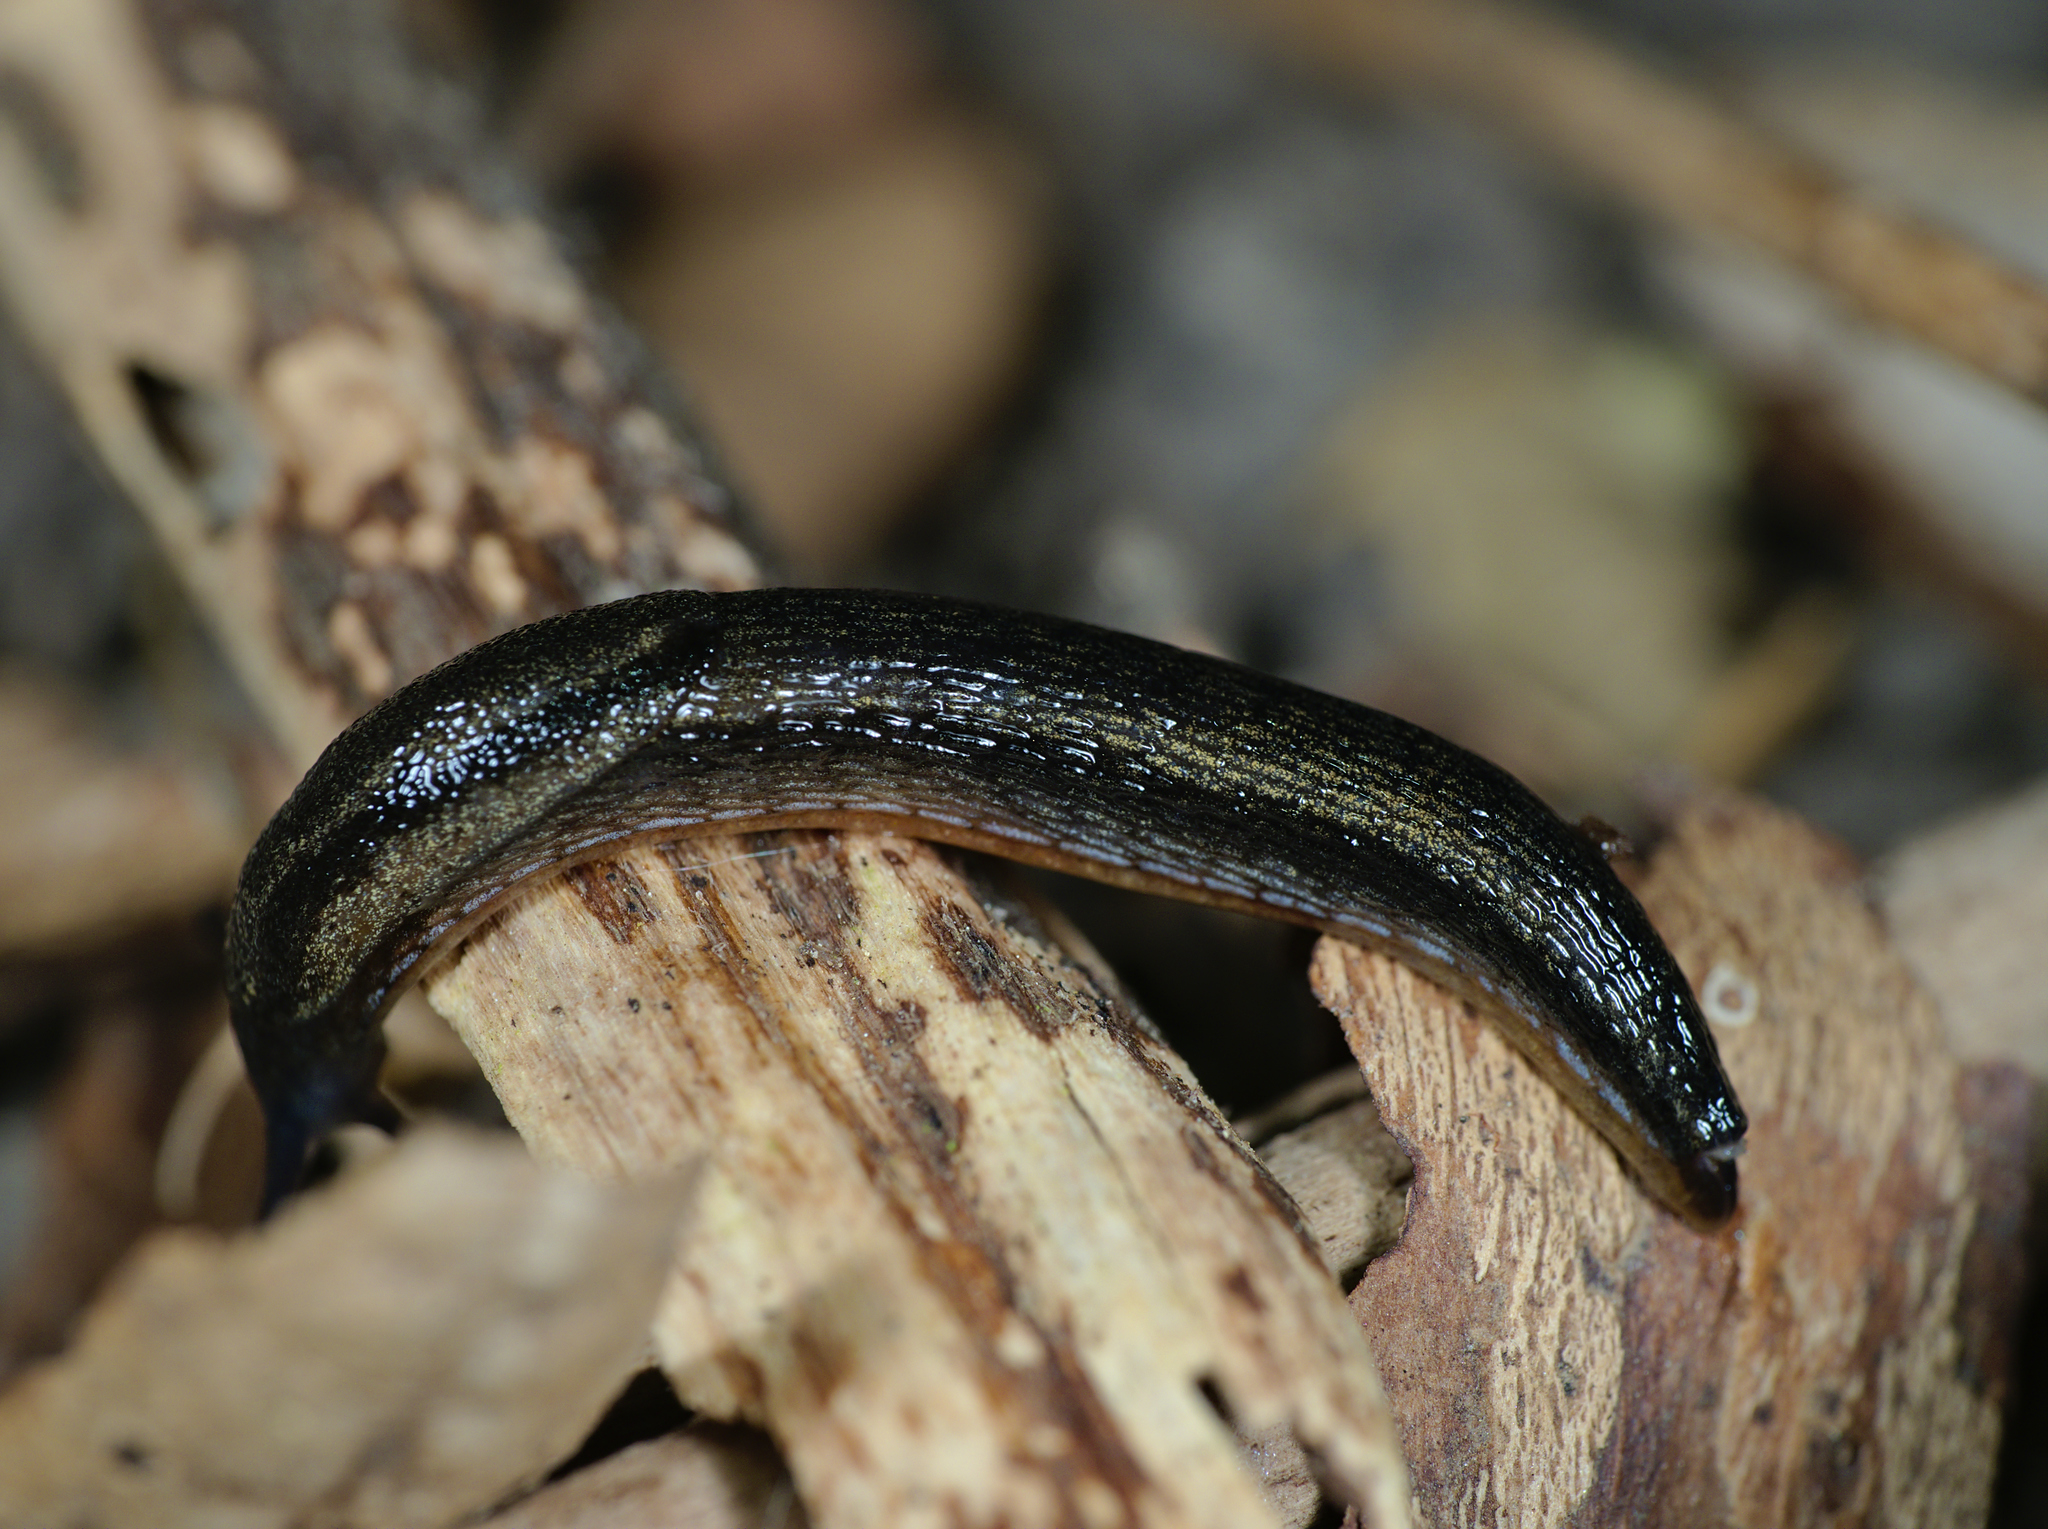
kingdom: Animalia
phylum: Mollusca
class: Gastropoda
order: Stylommatophora
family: Arionidae
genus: Arion
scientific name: Arion hortensis
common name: Garden arion
